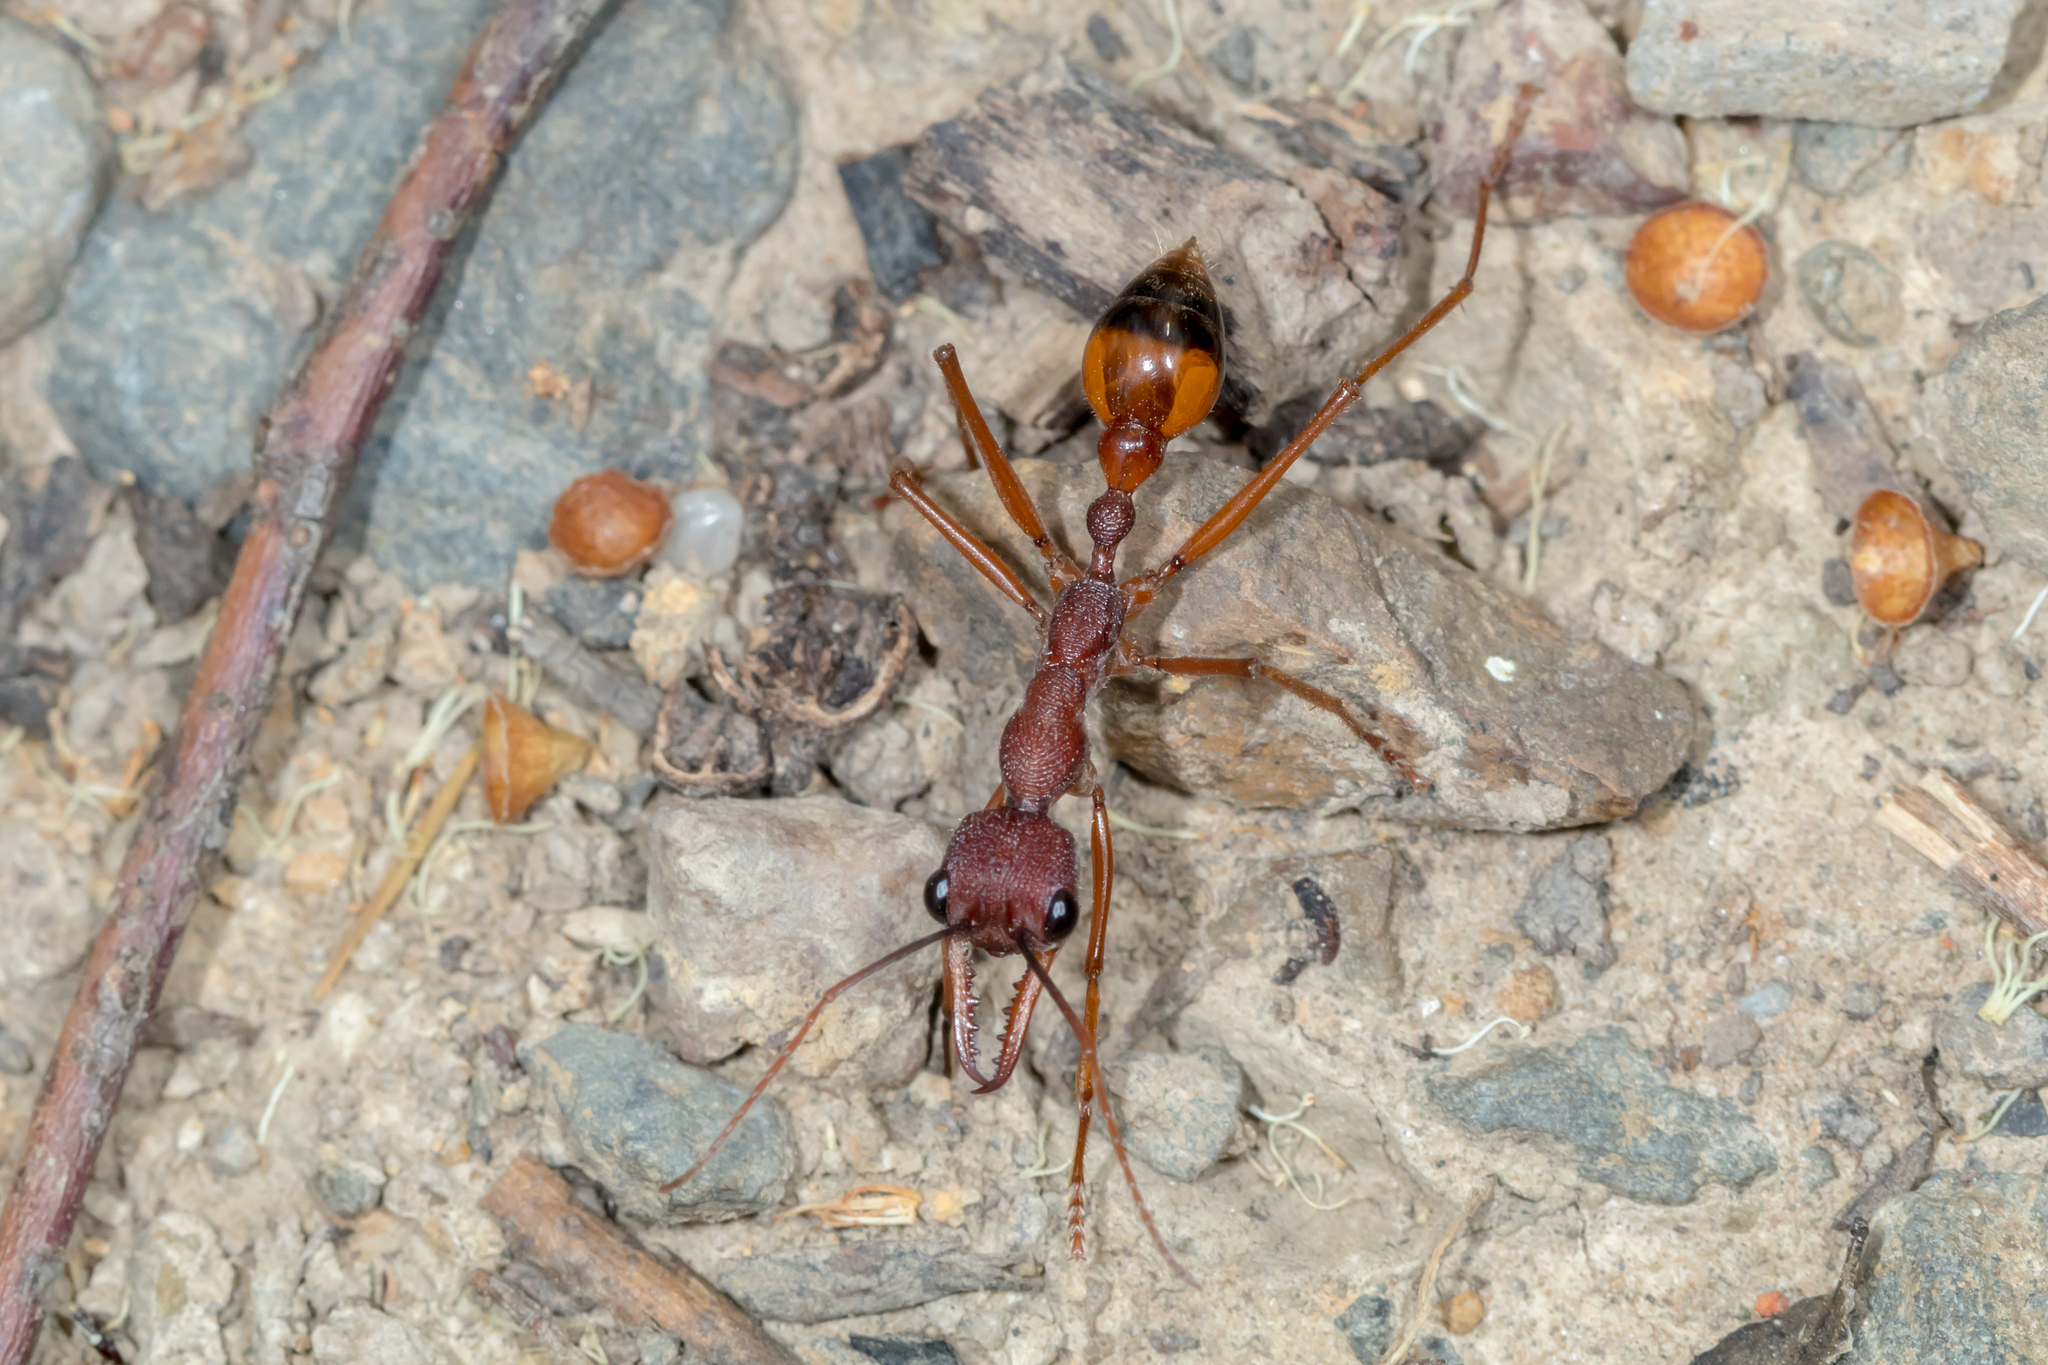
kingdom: Animalia
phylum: Arthropoda
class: Insecta
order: Hymenoptera
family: Formicidae
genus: Myrmecia
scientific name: Myrmecia nigriscapa
